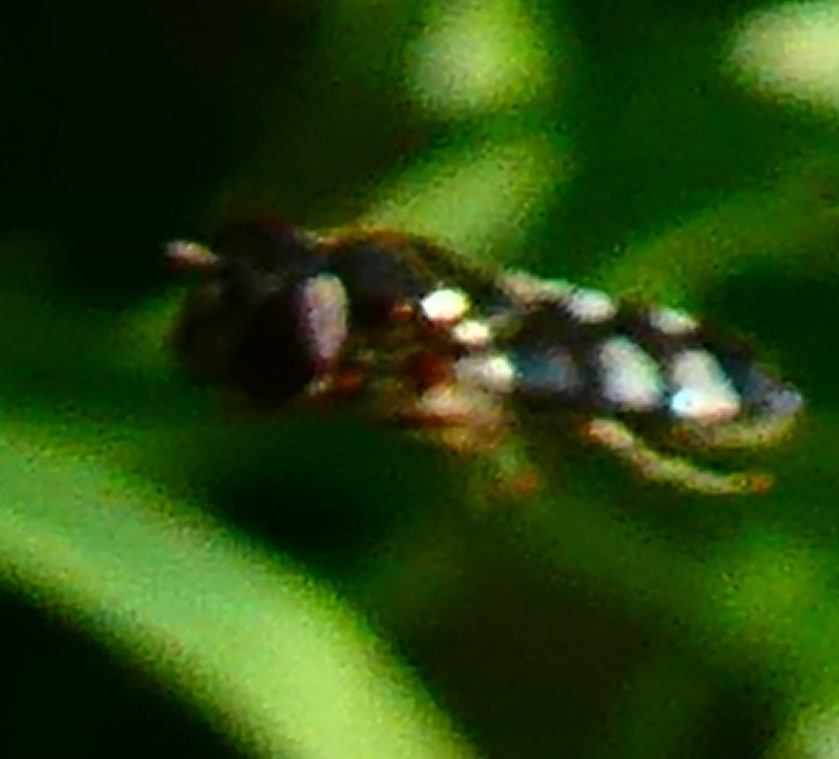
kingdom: Animalia
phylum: Arthropoda
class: Insecta
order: Diptera
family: Syrphidae
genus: Platycheirus
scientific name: Platycheirus albimanus
